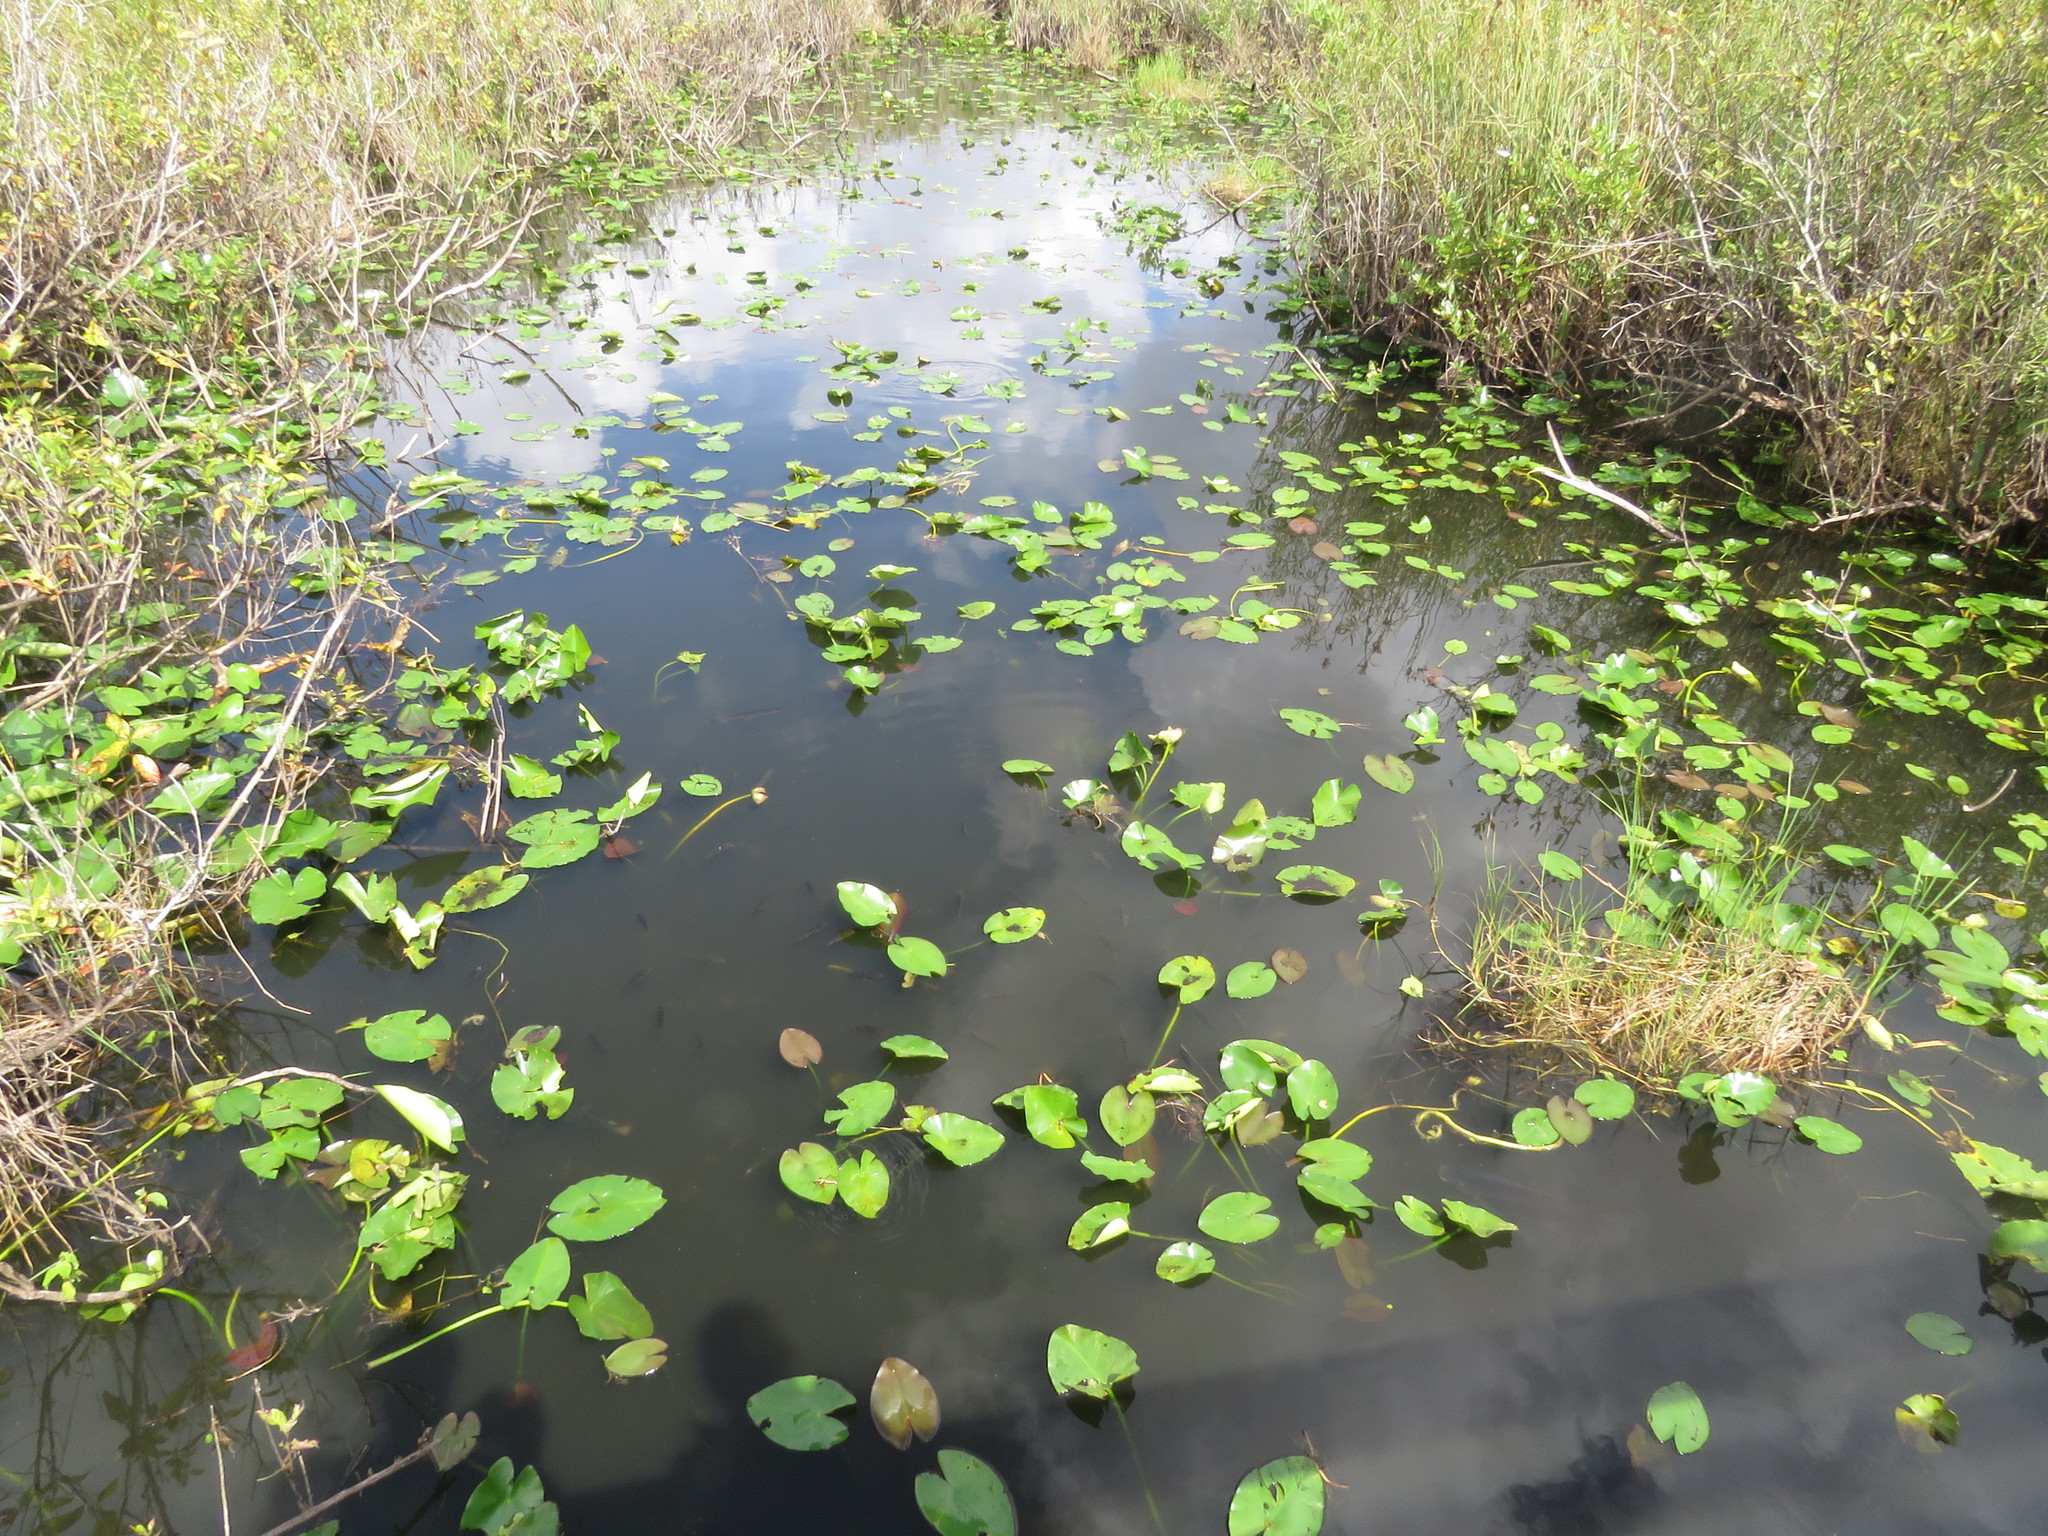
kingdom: Plantae
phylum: Tracheophyta
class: Magnoliopsida
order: Nymphaeales
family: Nymphaeaceae
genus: Nuphar
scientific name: Nuphar advena
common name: Spatter-dock
